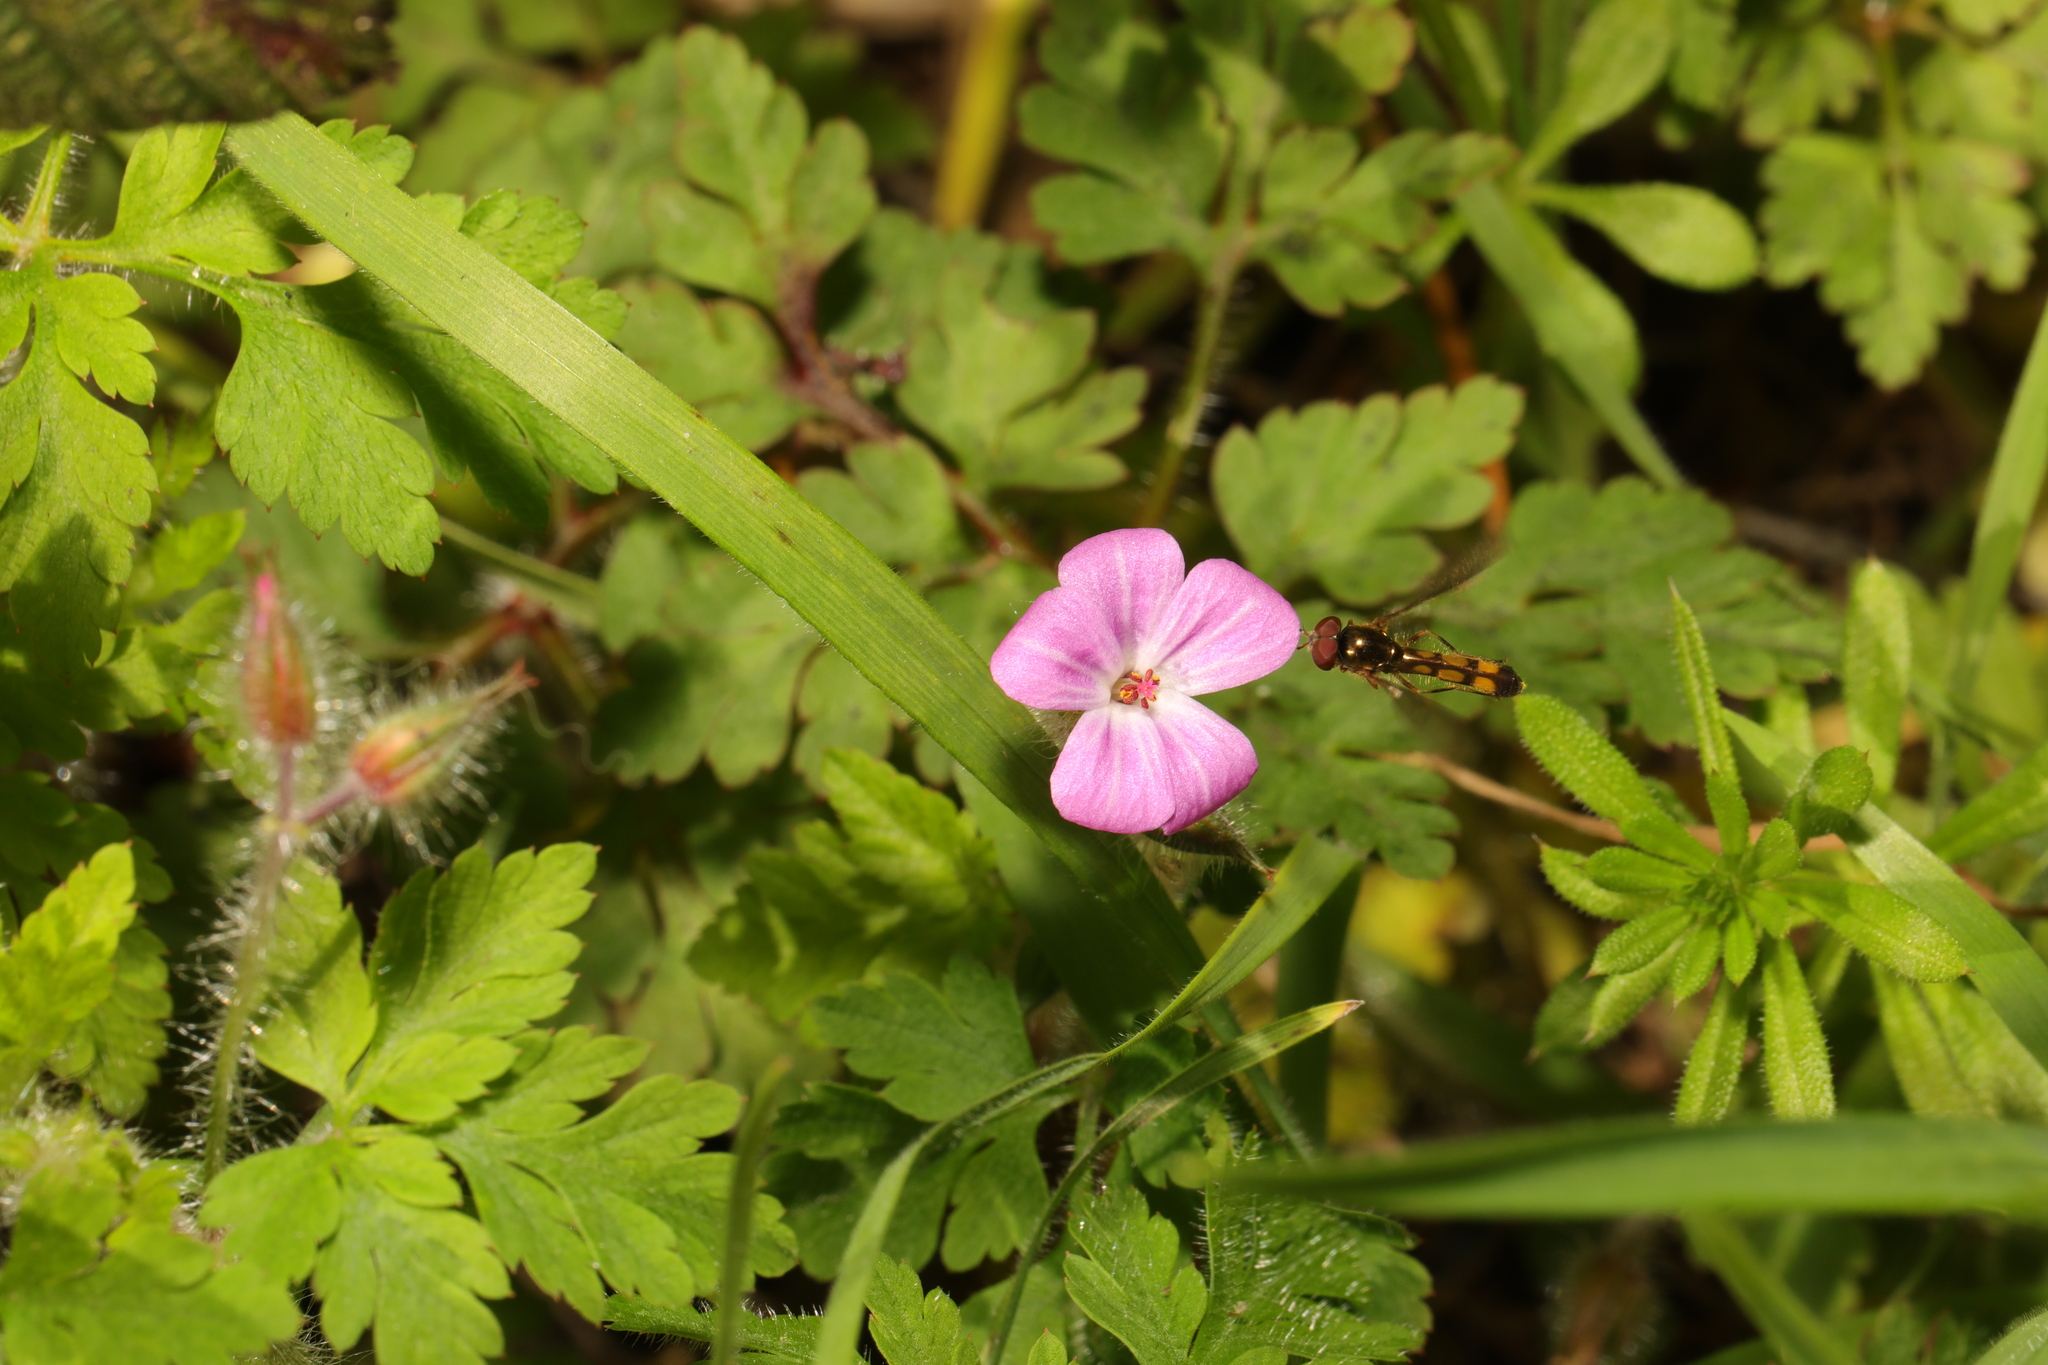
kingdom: Plantae
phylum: Tracheophyta
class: Magnoliopsida
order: Geraniales
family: Geraniaceae
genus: Geranium
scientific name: Geranium robertianum
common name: Herb-robert
